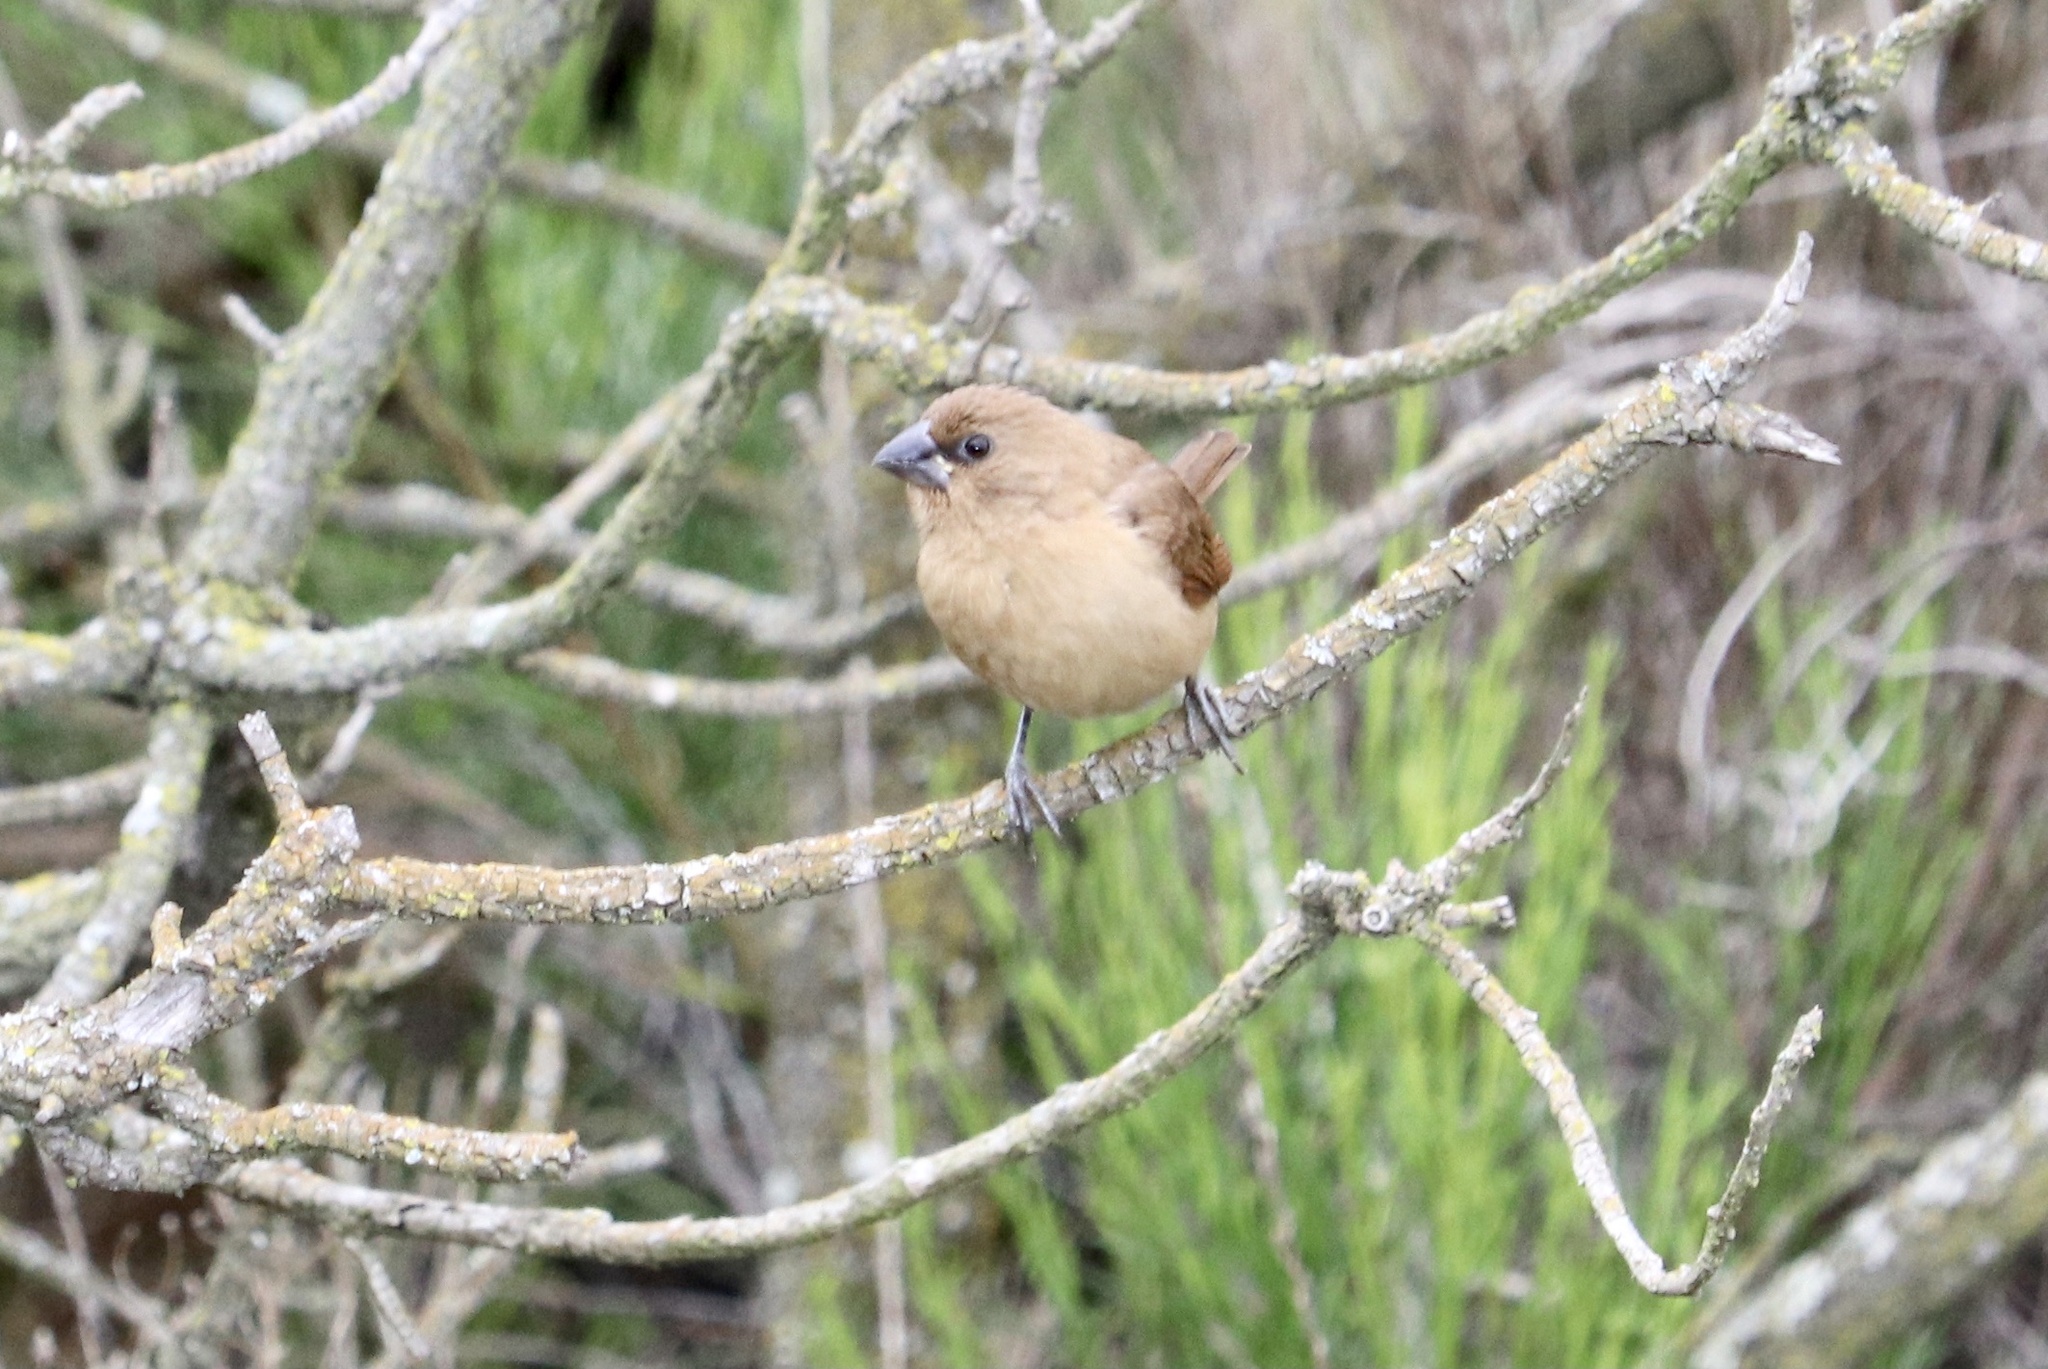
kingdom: Animalia
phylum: Chordata
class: Aves
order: Passeriformes
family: Estrildidae
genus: Lonchura
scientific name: Lonchura punctulata
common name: Scaly-breasted munia
